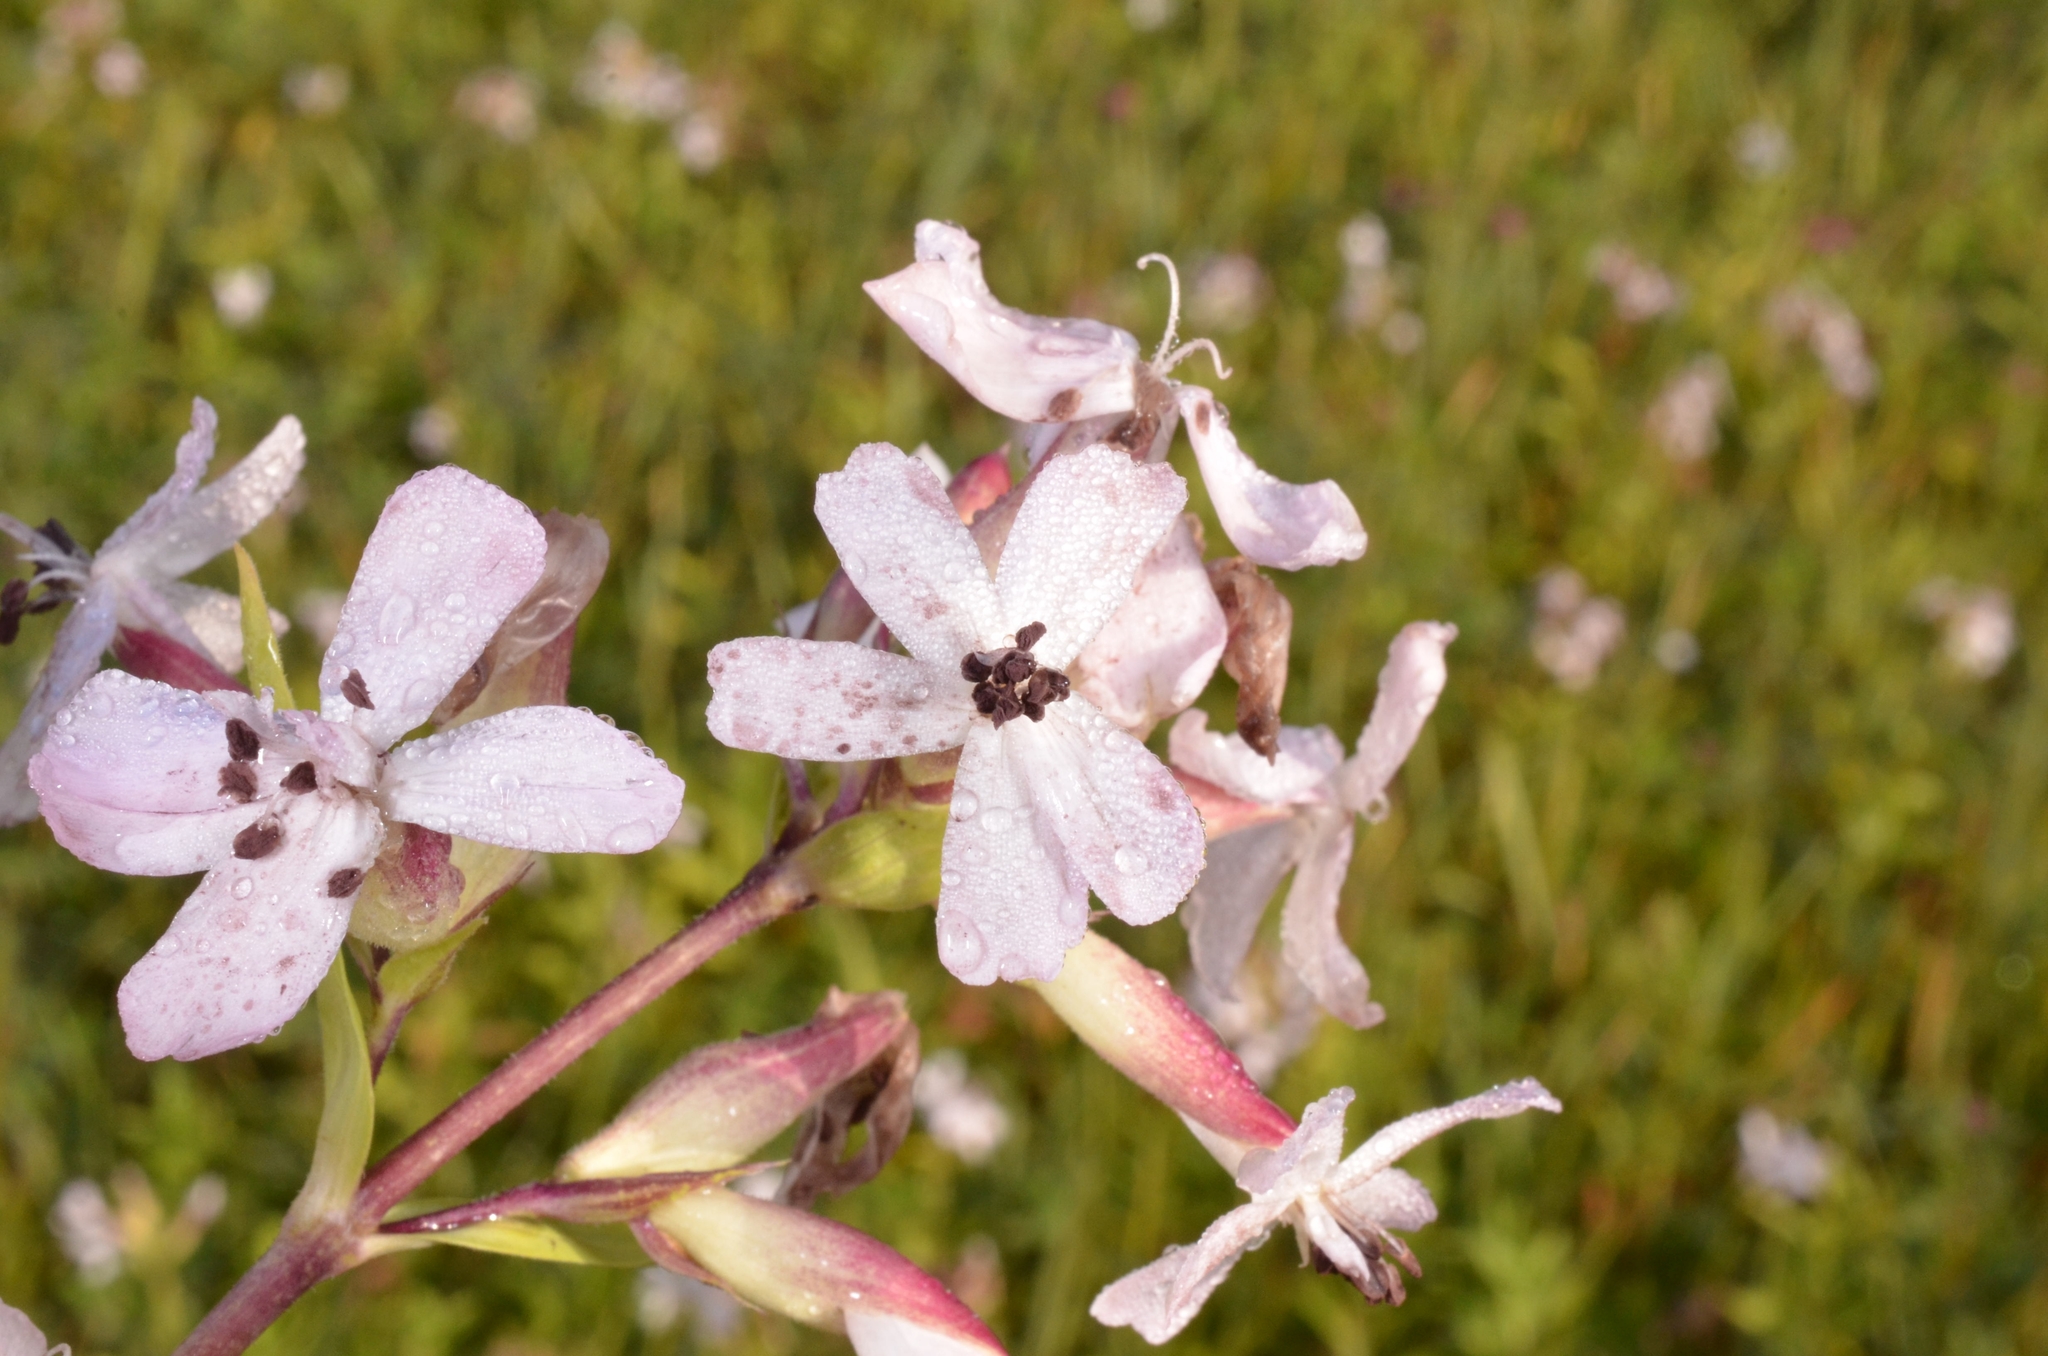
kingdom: Fungi
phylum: Basidiomycota
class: Microbotryomycetes
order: Microbotryales
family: Microbotryaceae
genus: Microbotryum
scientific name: Microbotryum saponariae
